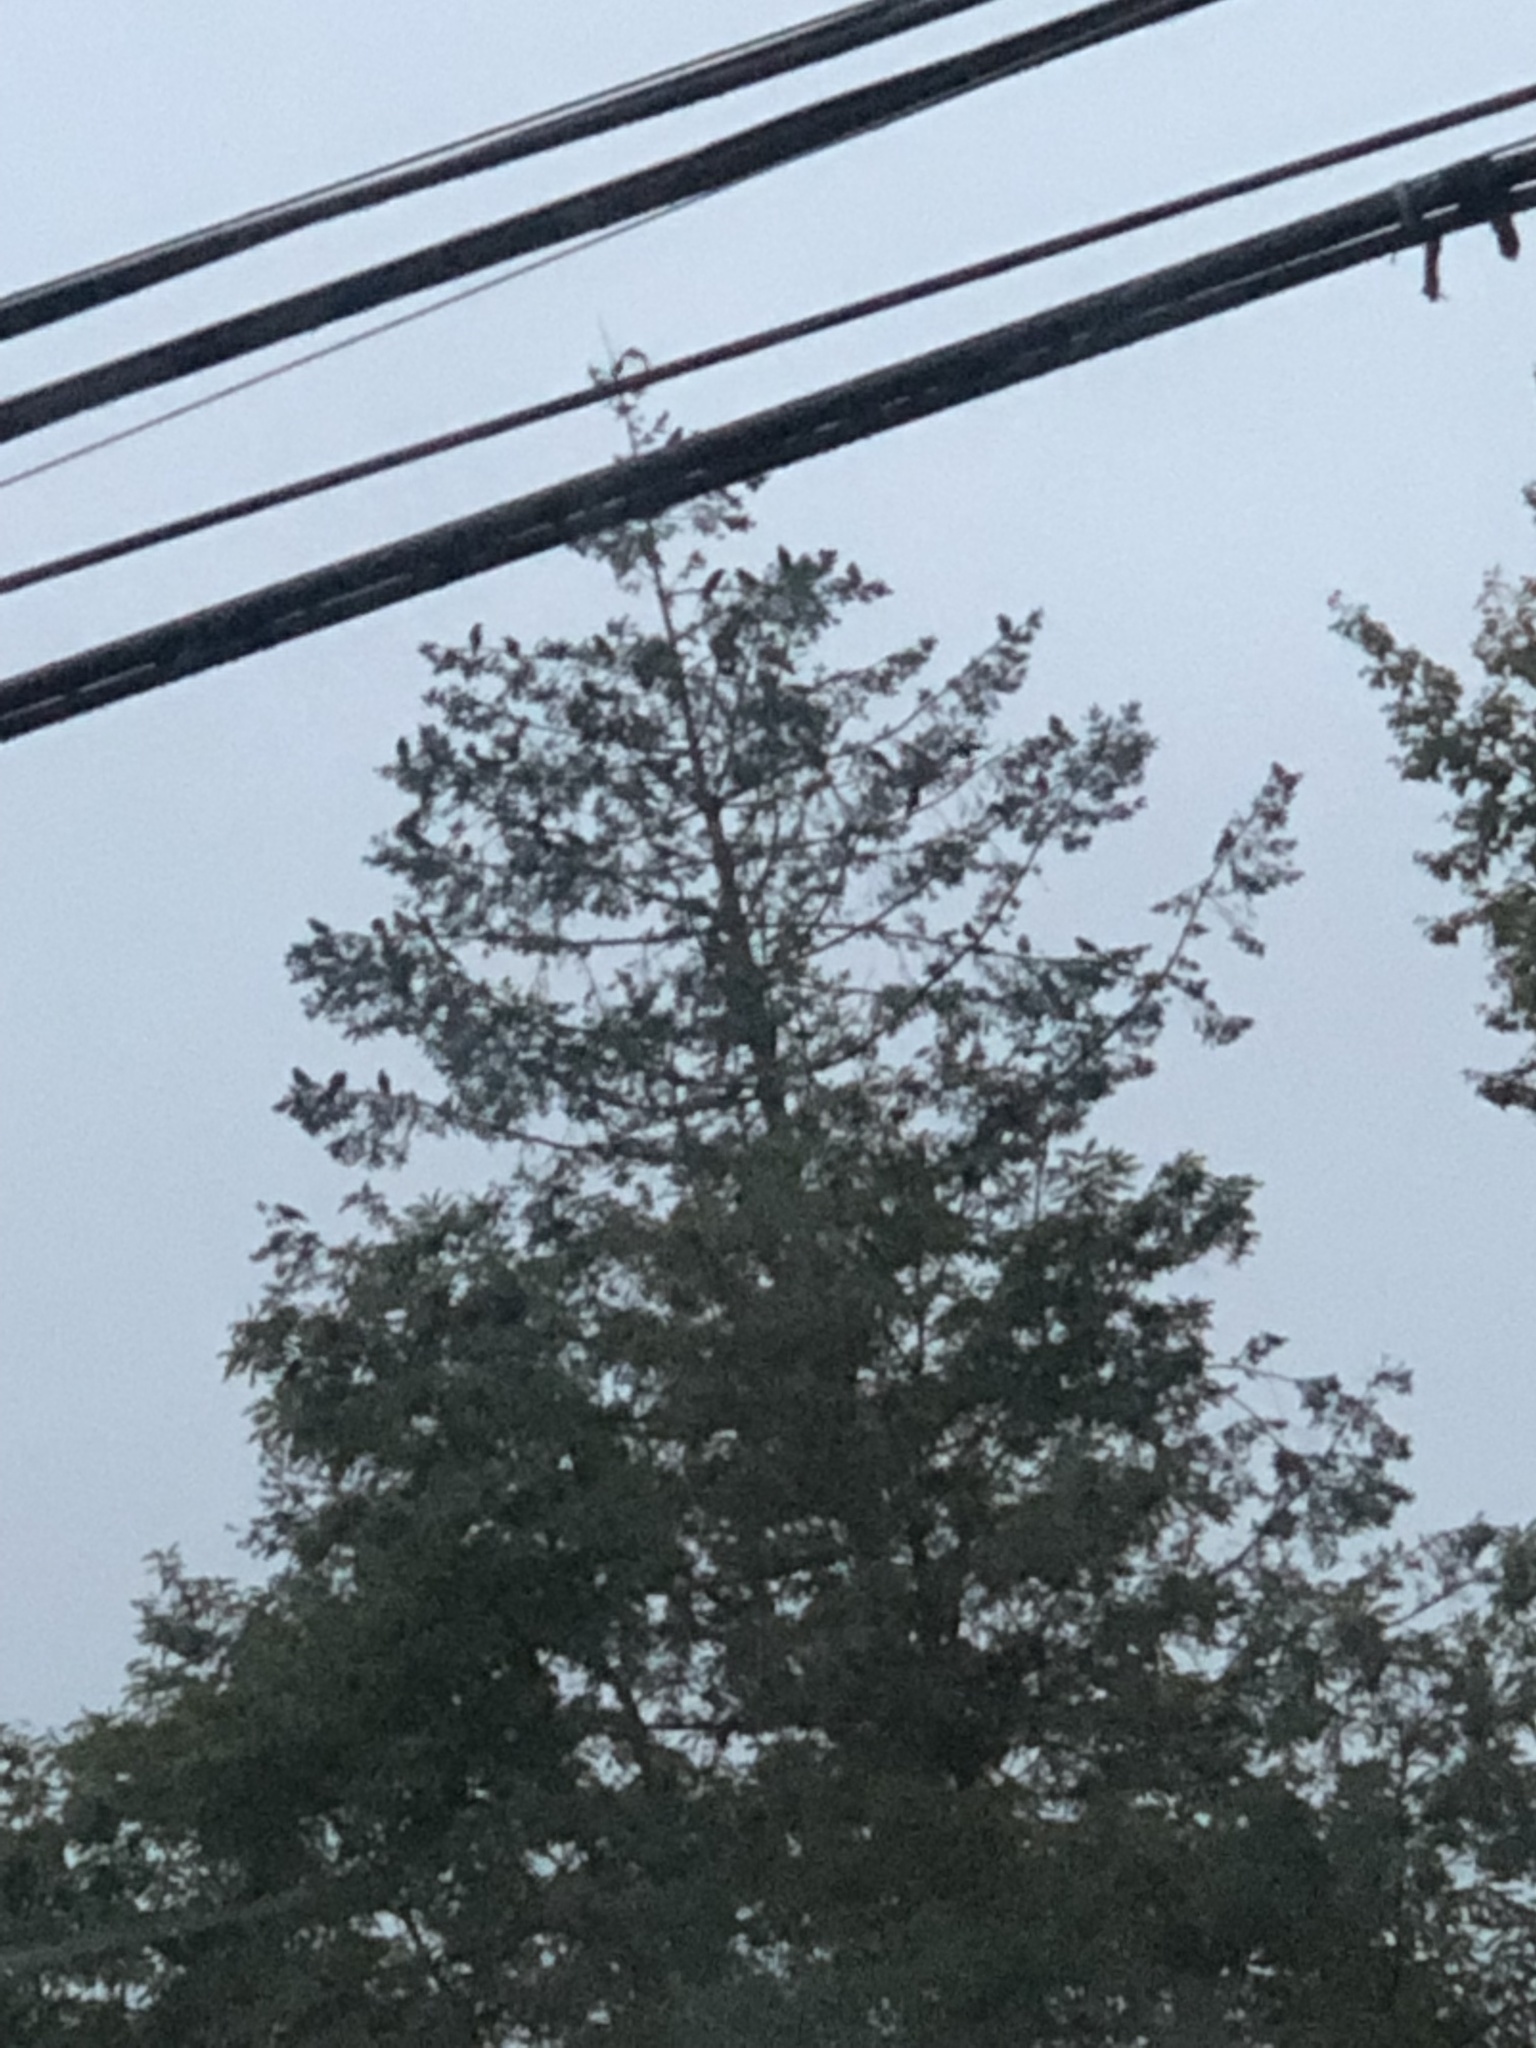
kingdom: Animalia
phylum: Chordata
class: Aves
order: Passeriformes
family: Corvidae
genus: Corvus
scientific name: Corvus brachyrhynchos
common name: American crow
